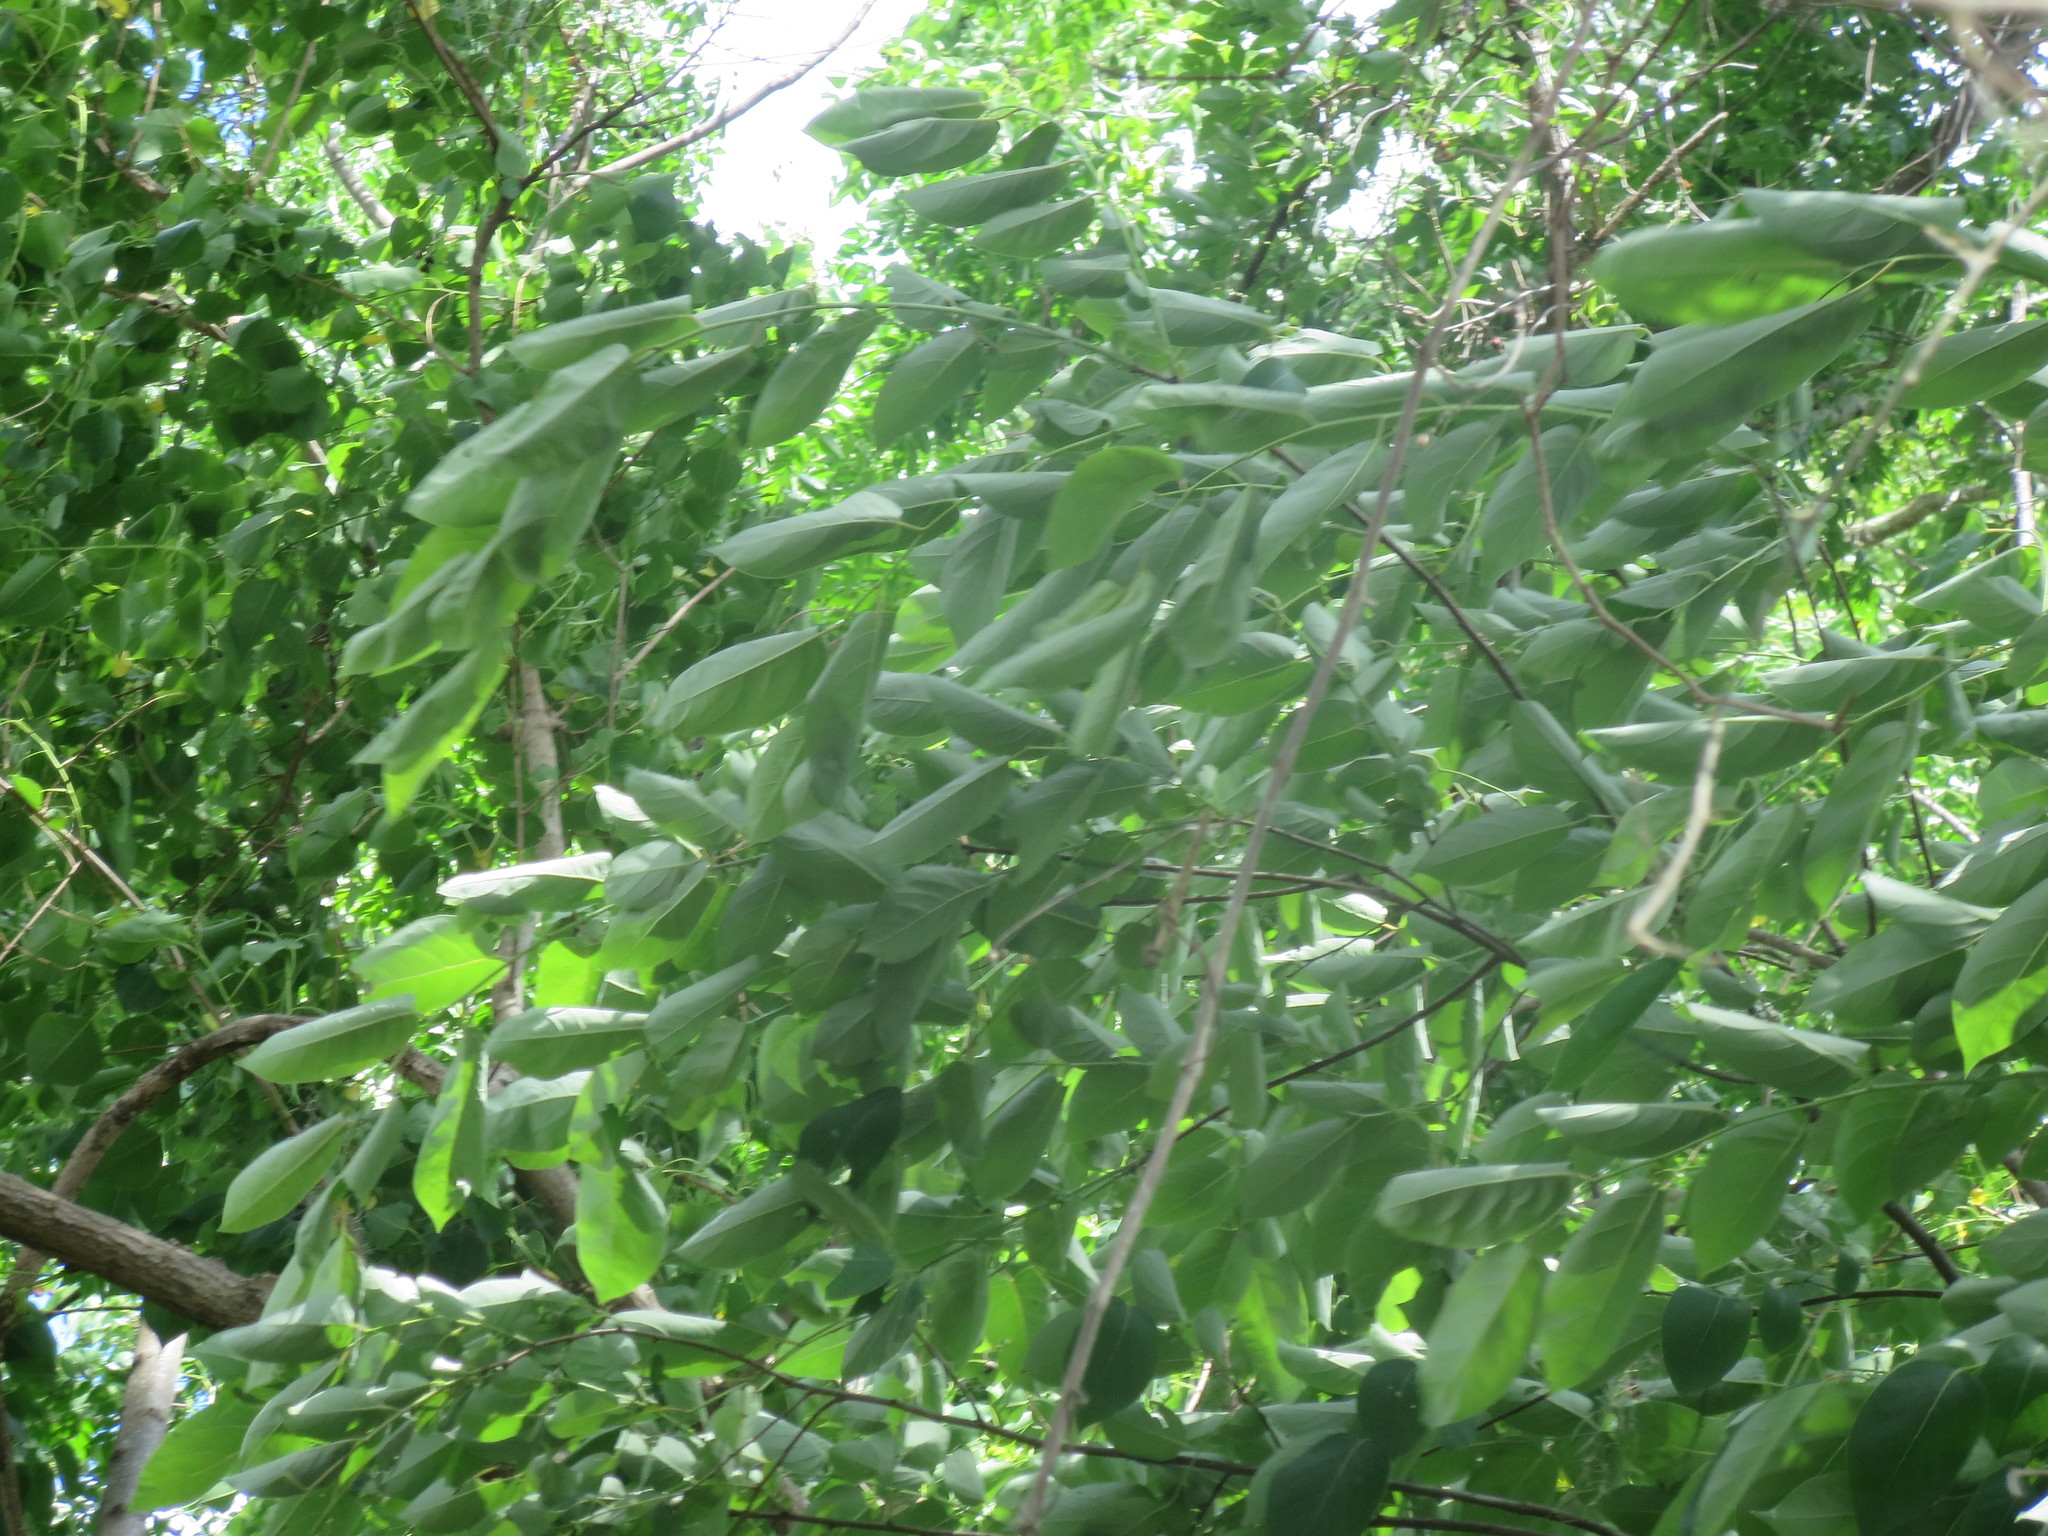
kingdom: Plantae
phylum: Tracheophyta
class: Magnoliopsida
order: Ericales
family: Ebenaceae
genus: Diospyros
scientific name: Diospyros virginiana
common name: Persimmon
